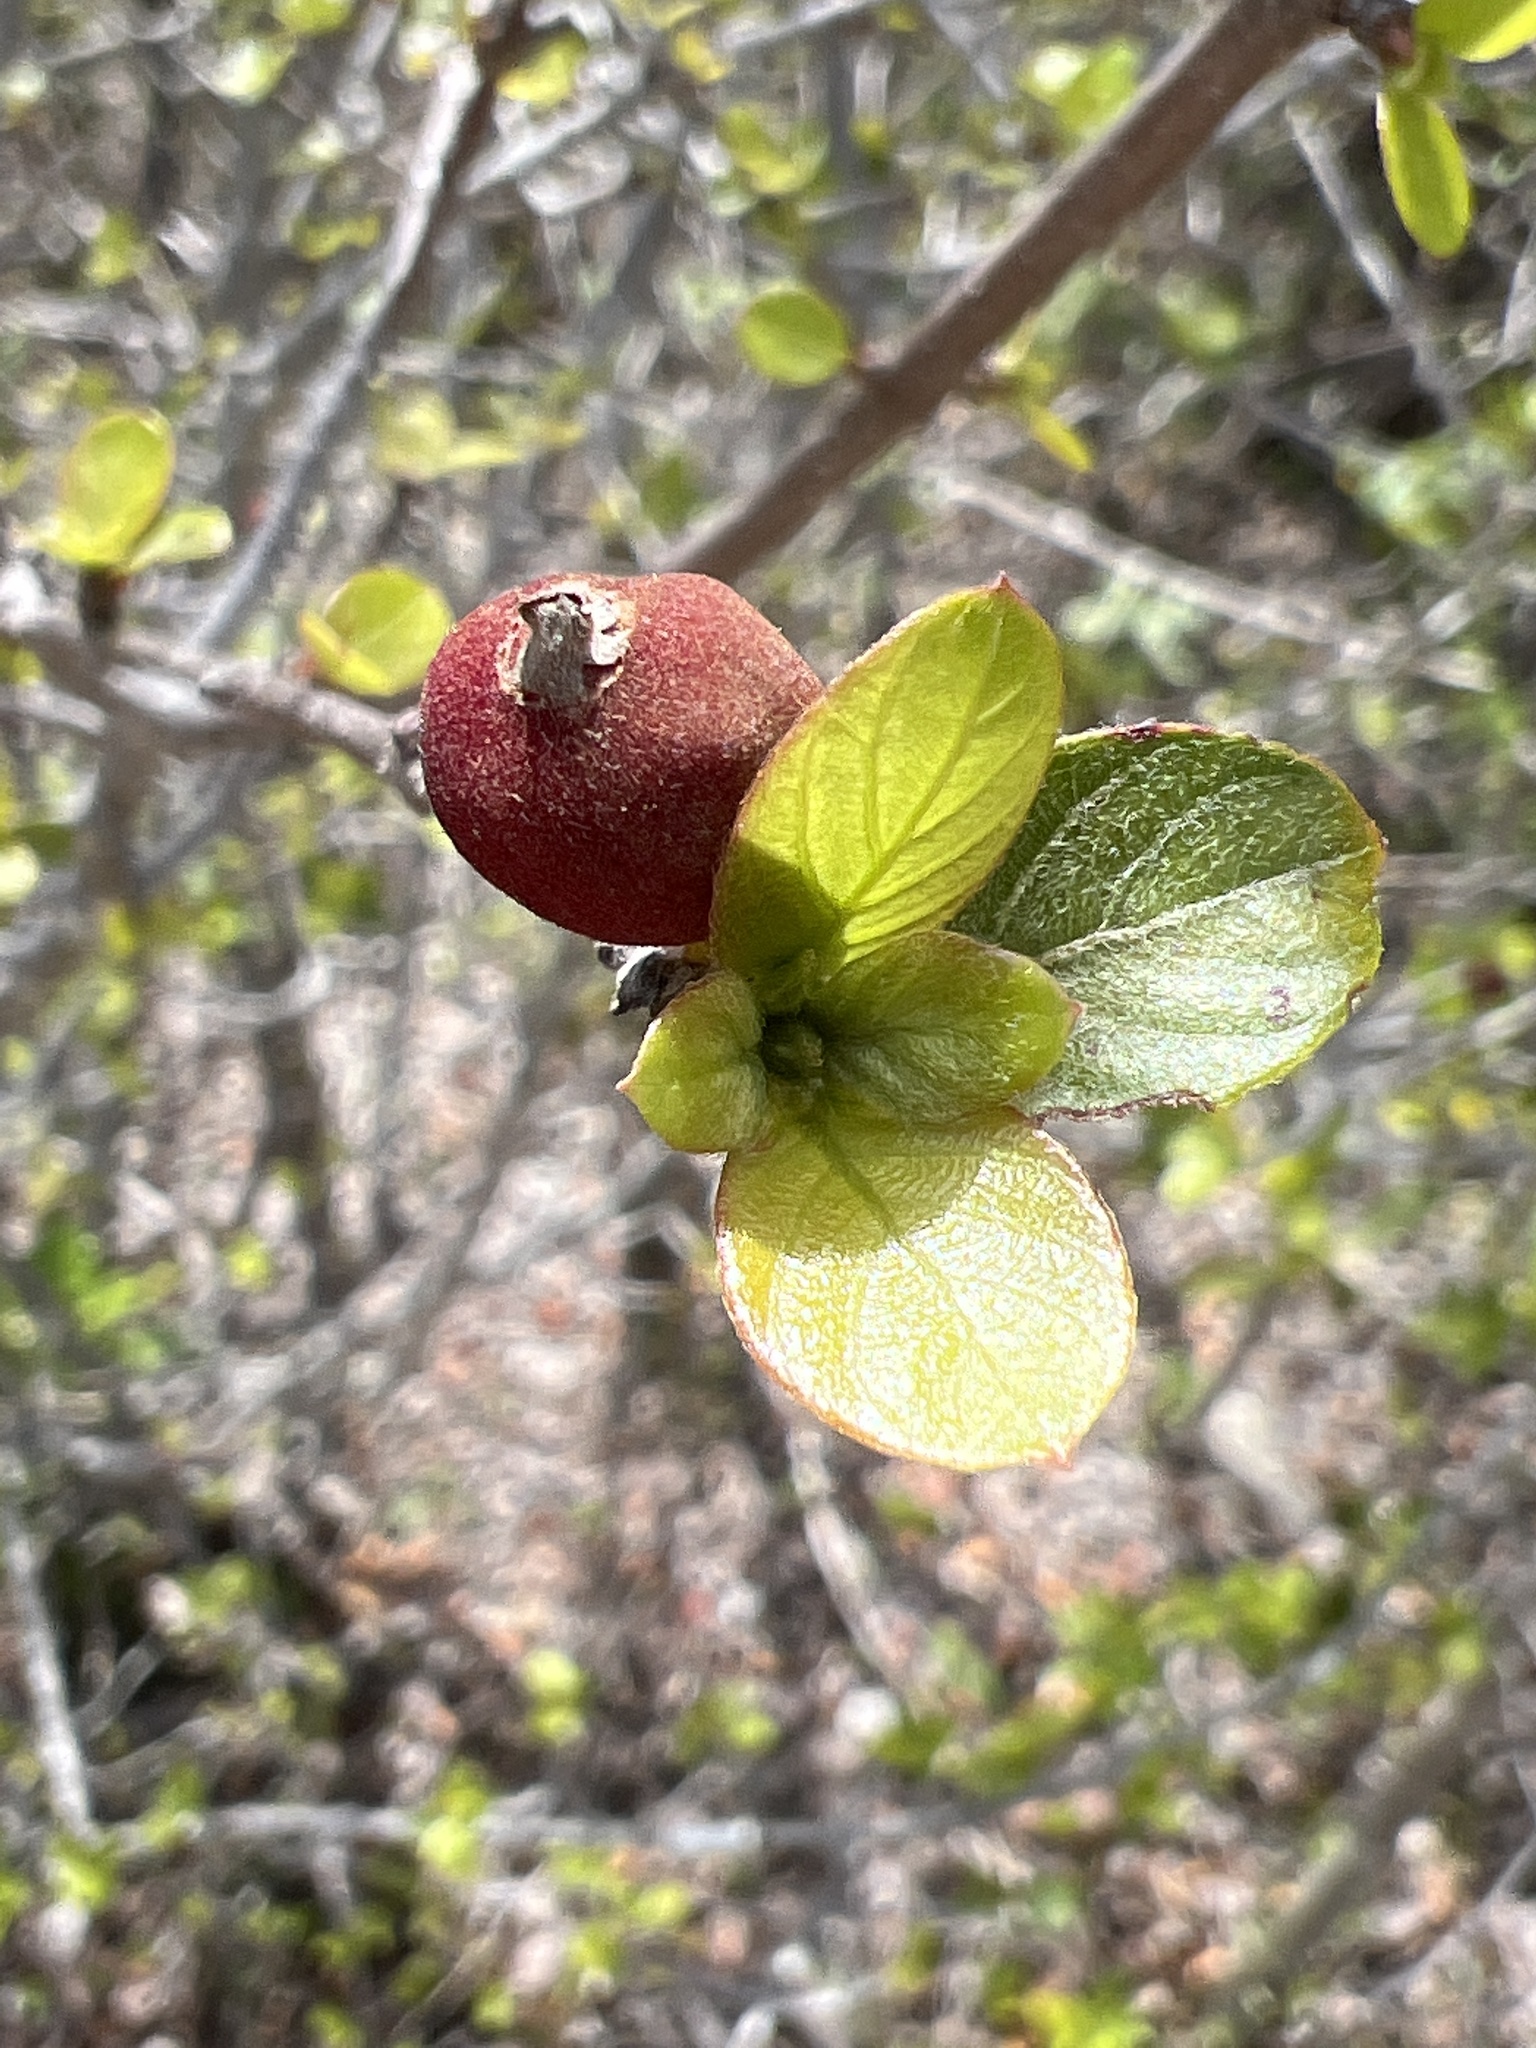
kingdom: Plantae
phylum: Tracheophyta
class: Magnoliopsida
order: Gentianales
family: Rubiaceae
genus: Guettarda
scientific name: Guettarda elliptica
